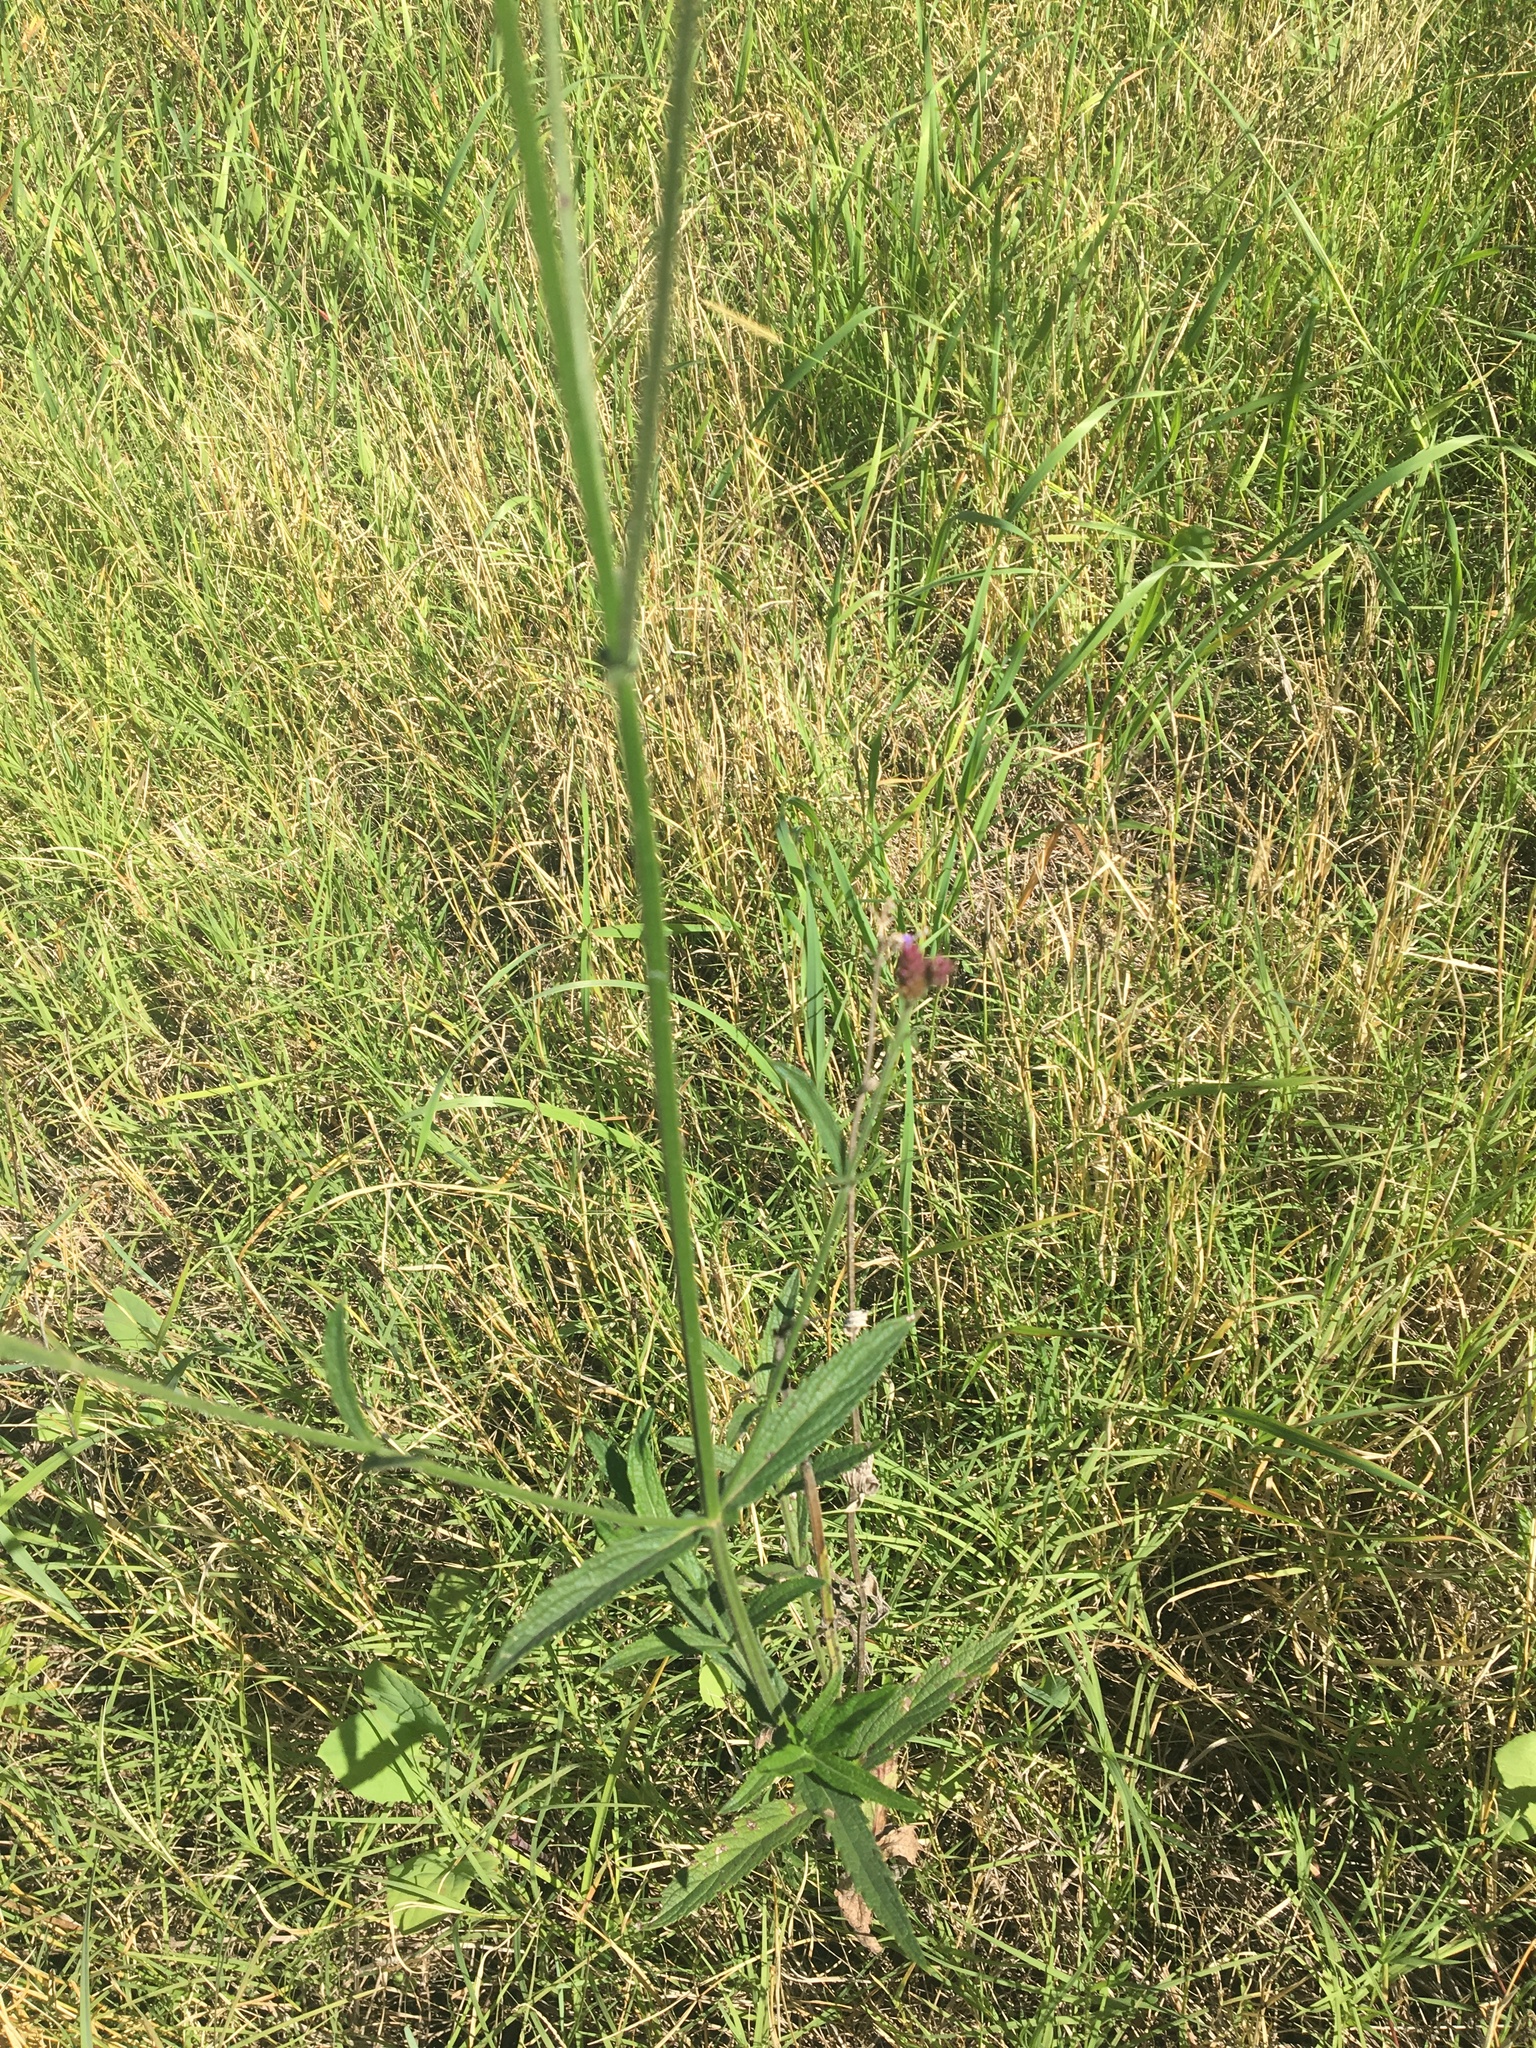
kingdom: Plantae
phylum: Tracheophyta
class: Magnoliopsida
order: Lamiales
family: Verbenaceae
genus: Verbena
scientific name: Verbena bonariensis
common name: Purpletop vervain
